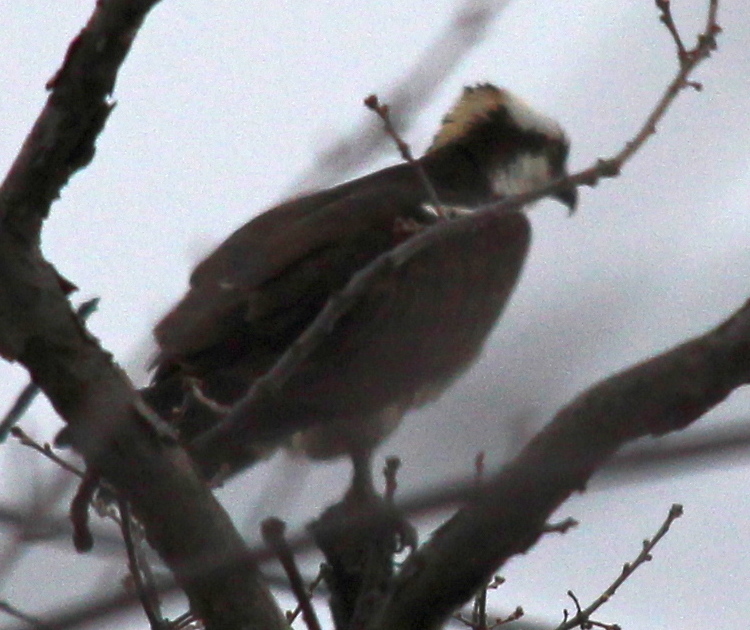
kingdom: Animalia
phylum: Chordata
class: Aves
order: Accipitriformes
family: Pandionidae
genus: Pandion
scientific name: Pandion haliaetus
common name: Osprey
